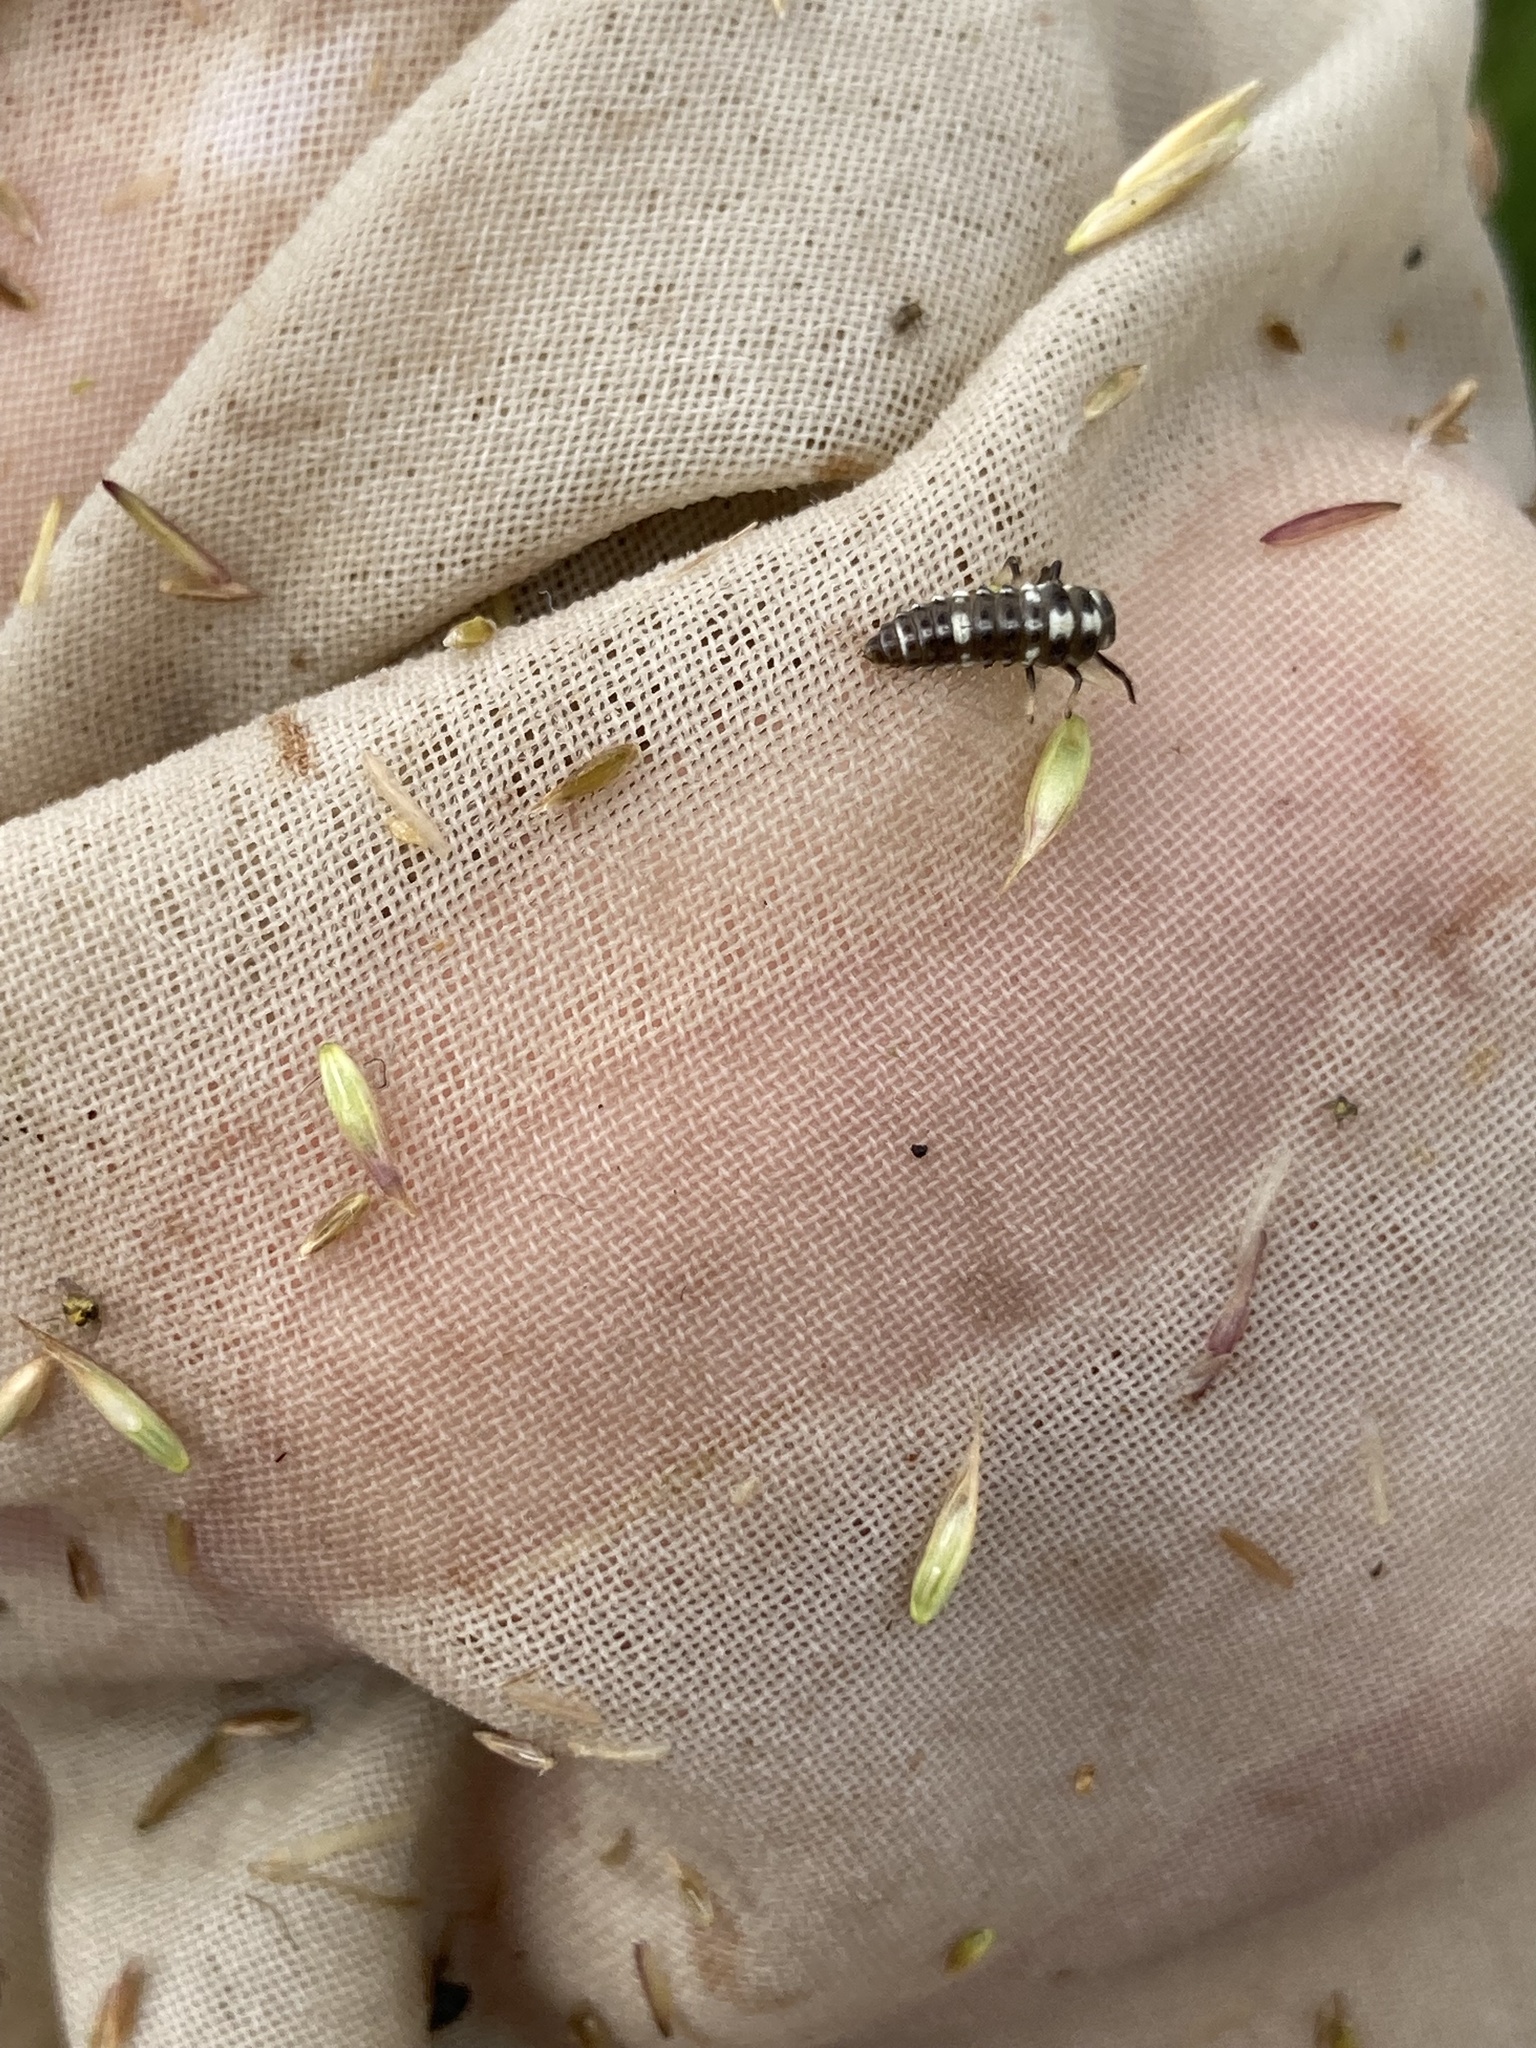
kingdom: Animalia
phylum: Arthropoda
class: Insecta
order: Coleoptera
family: Coccinellidae
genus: Propylaea
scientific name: Propylaea quatuordecimpunctata
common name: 14-spotted ladybird beetle
